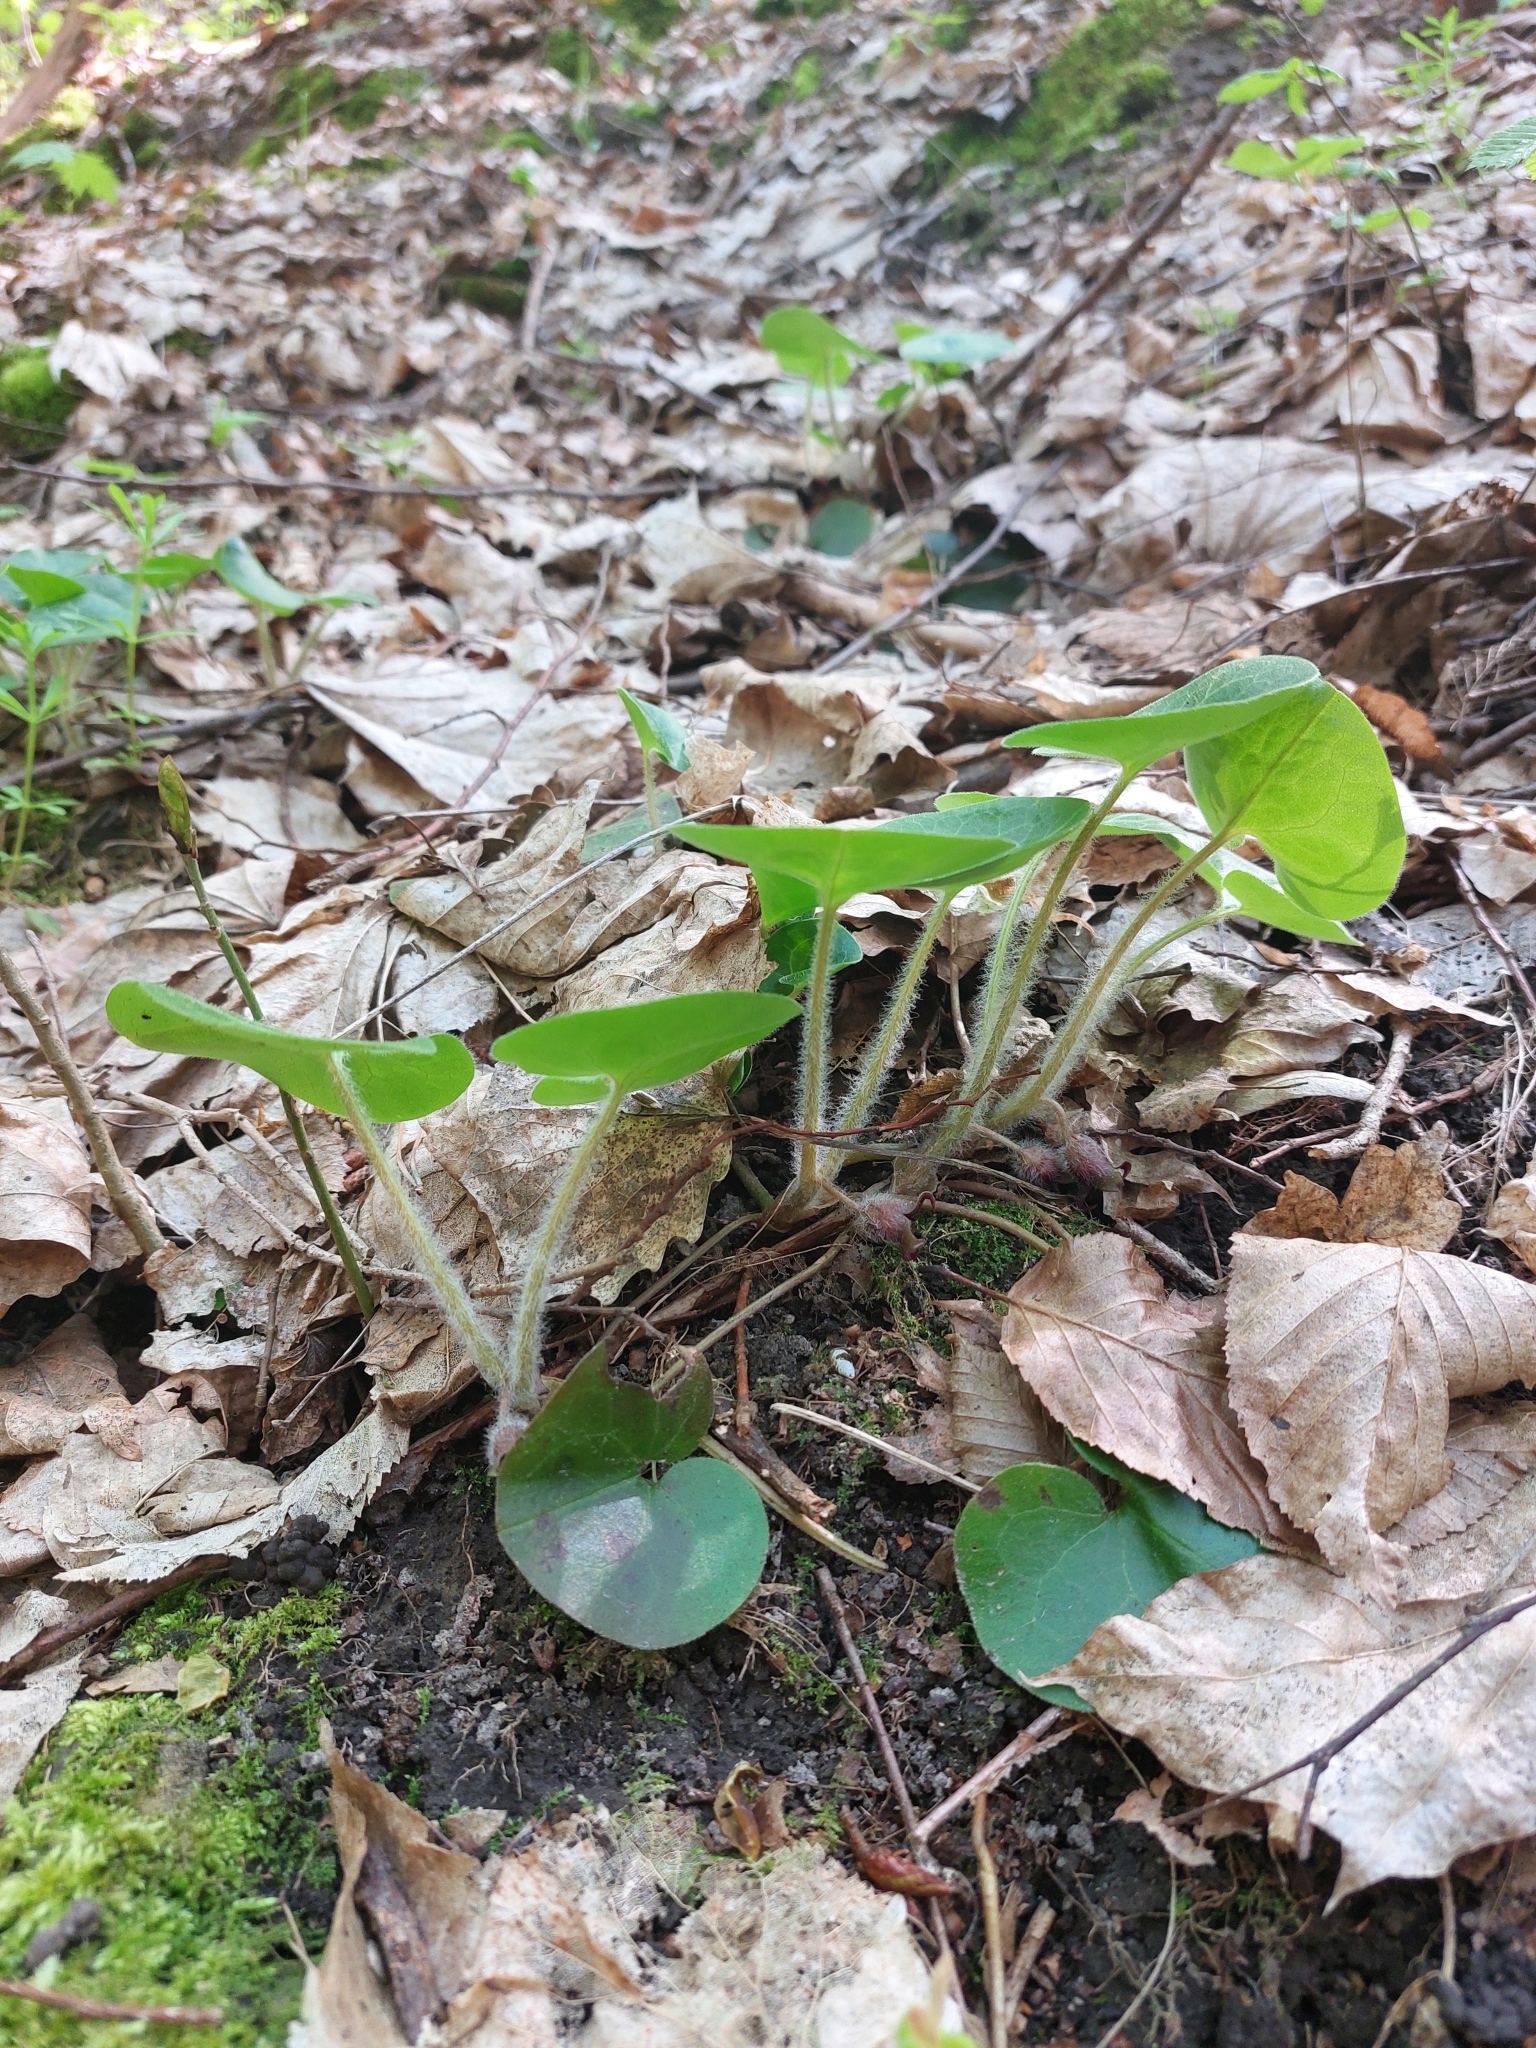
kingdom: Plantae
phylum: Tracheophyta
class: Magnoliopsida
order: Piperales
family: Aristolochiaceae
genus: Asarum
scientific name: Asarum europaeum
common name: Asarabacca
